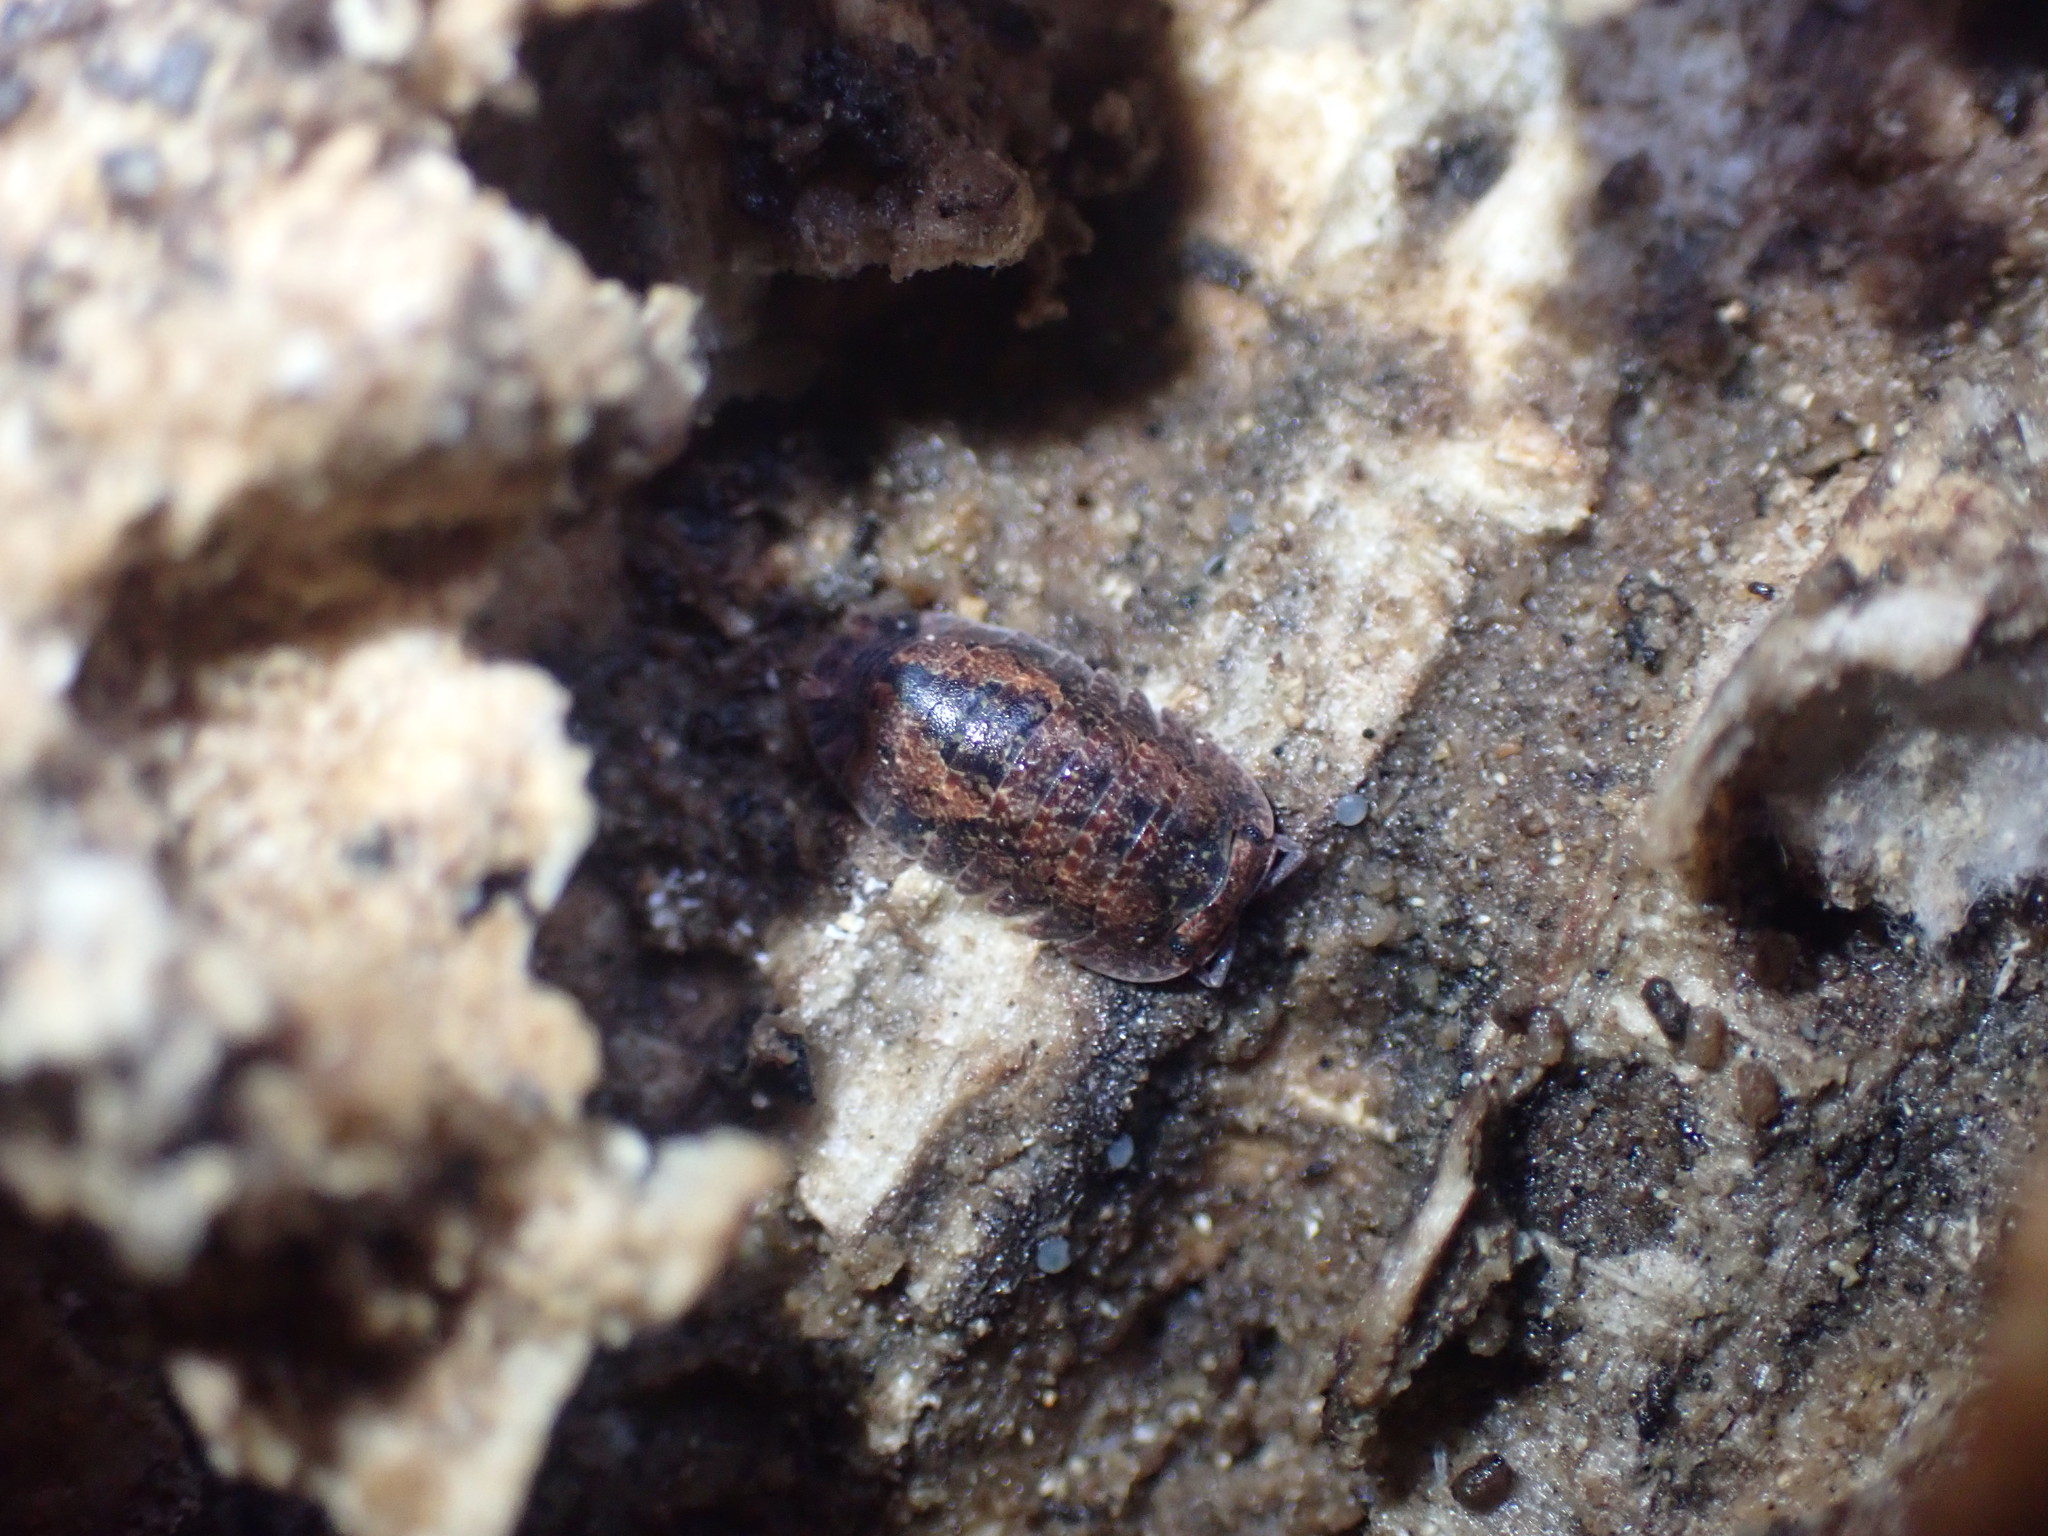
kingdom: Animalia
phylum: Arthropoda
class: Malacostraca
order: Isopoda
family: Armadillidae
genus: Cubaris
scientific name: Cubaris tarangensis
